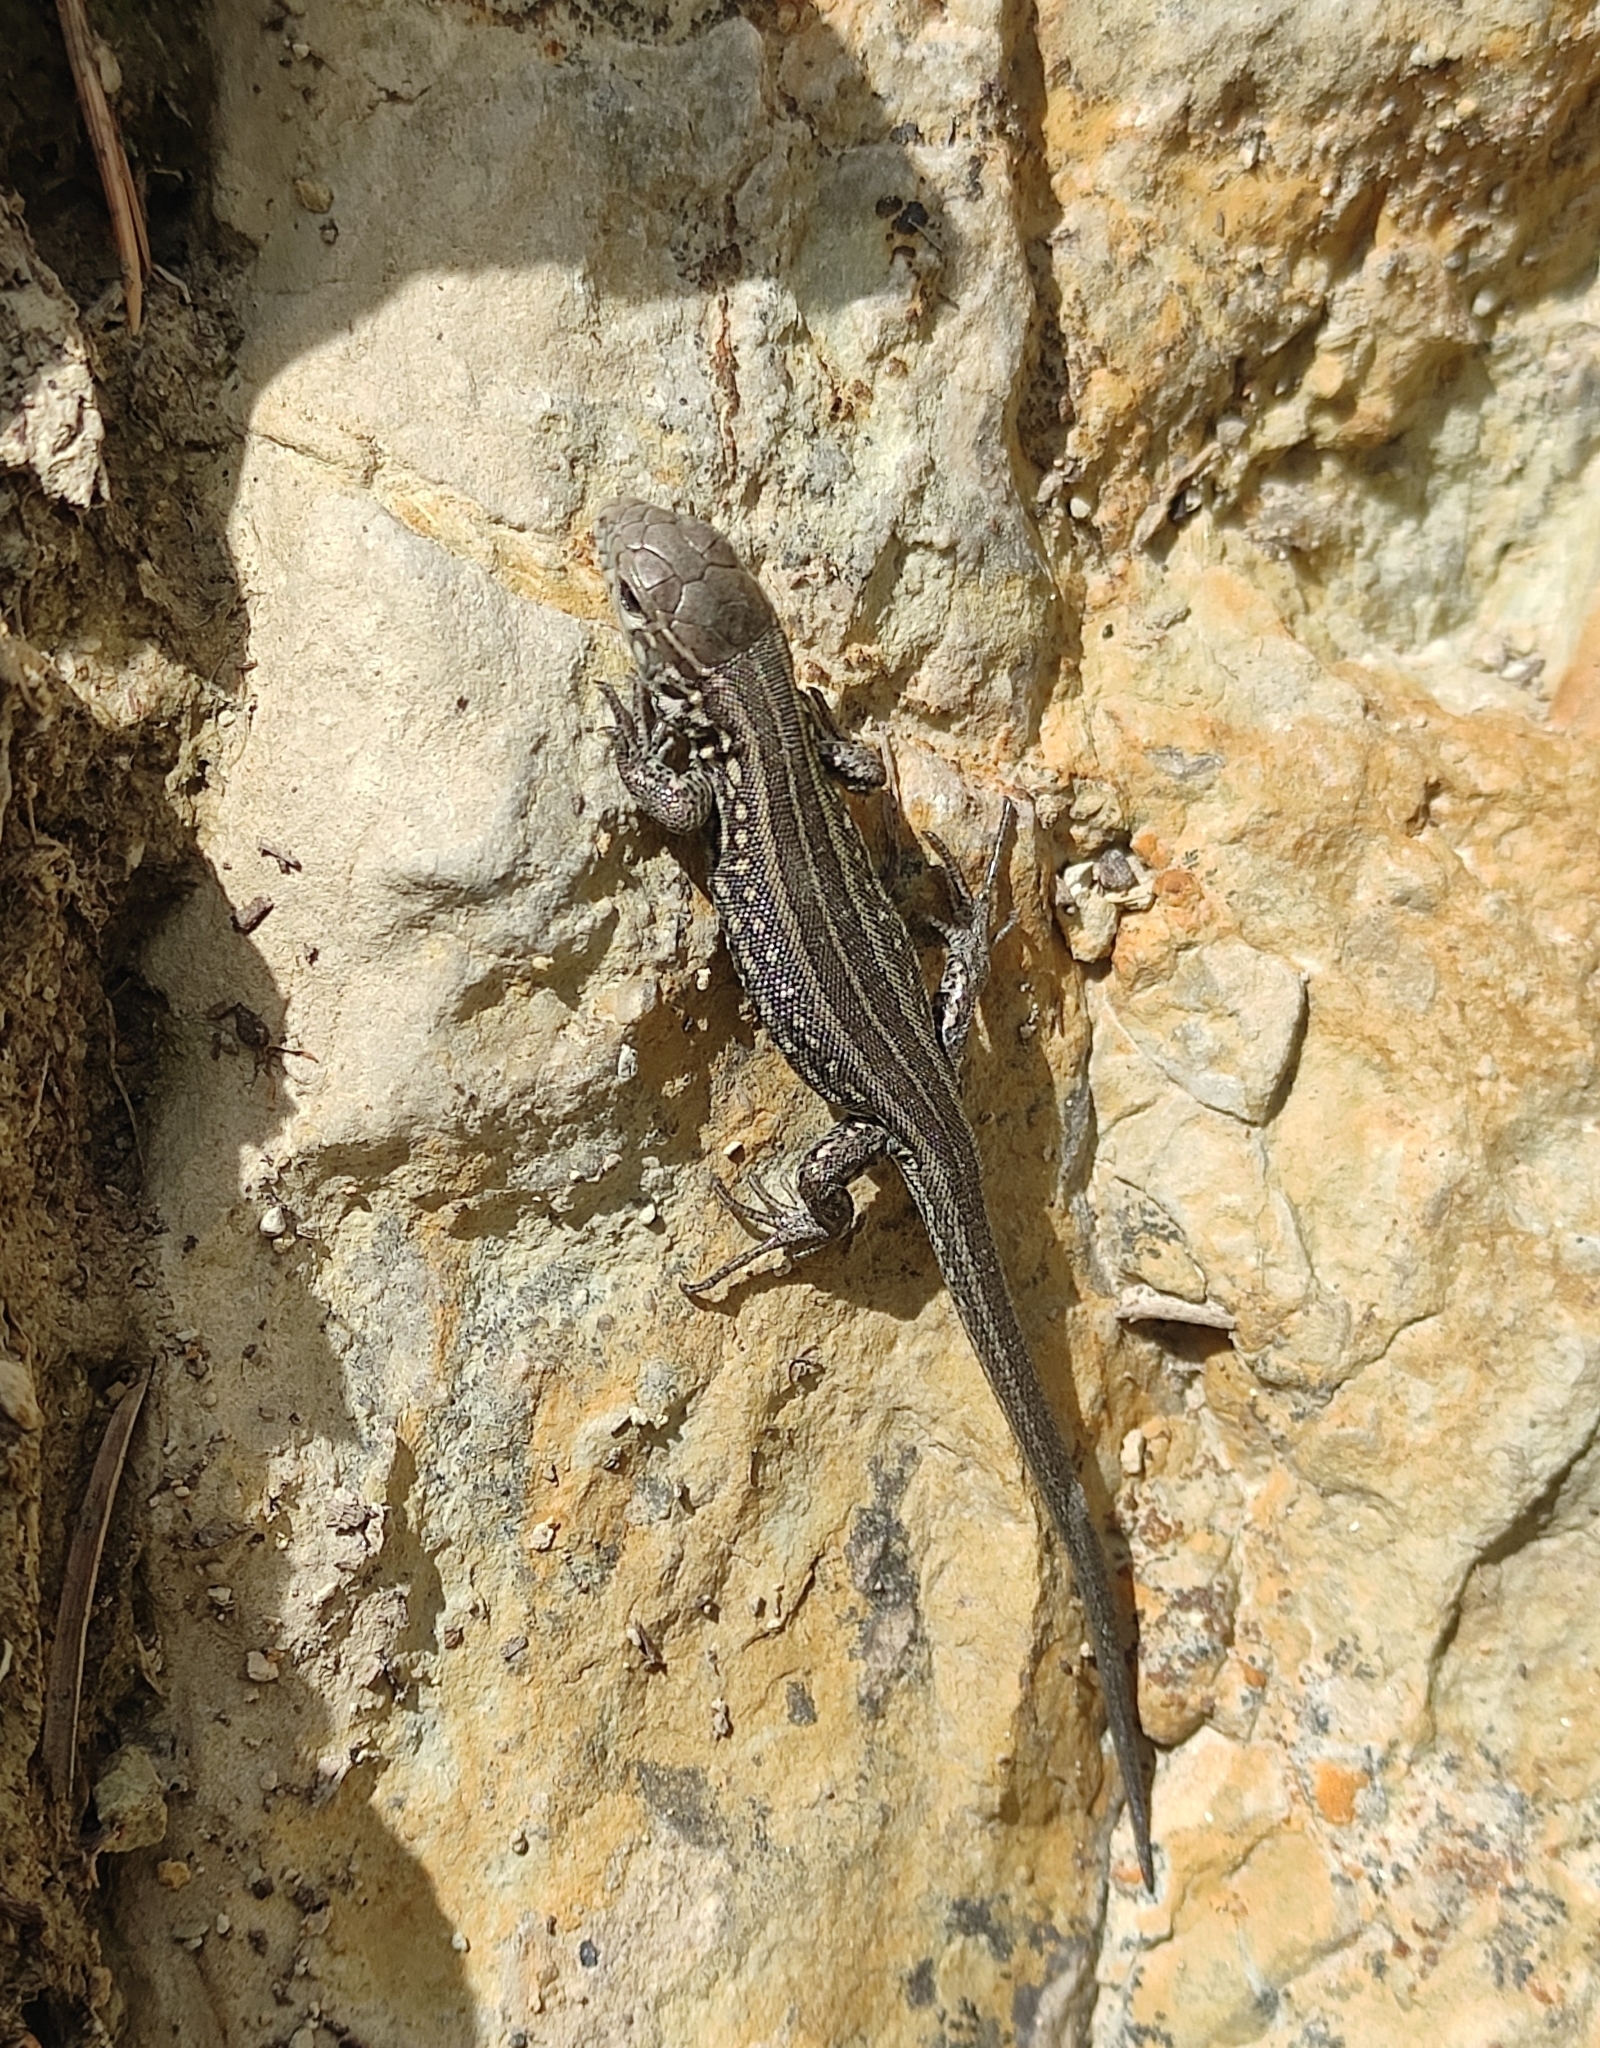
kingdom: Animalia
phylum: Chordata
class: Squamata
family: Lacertidae
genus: Lacerta
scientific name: Lacerta agilis
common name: Sand lizard
